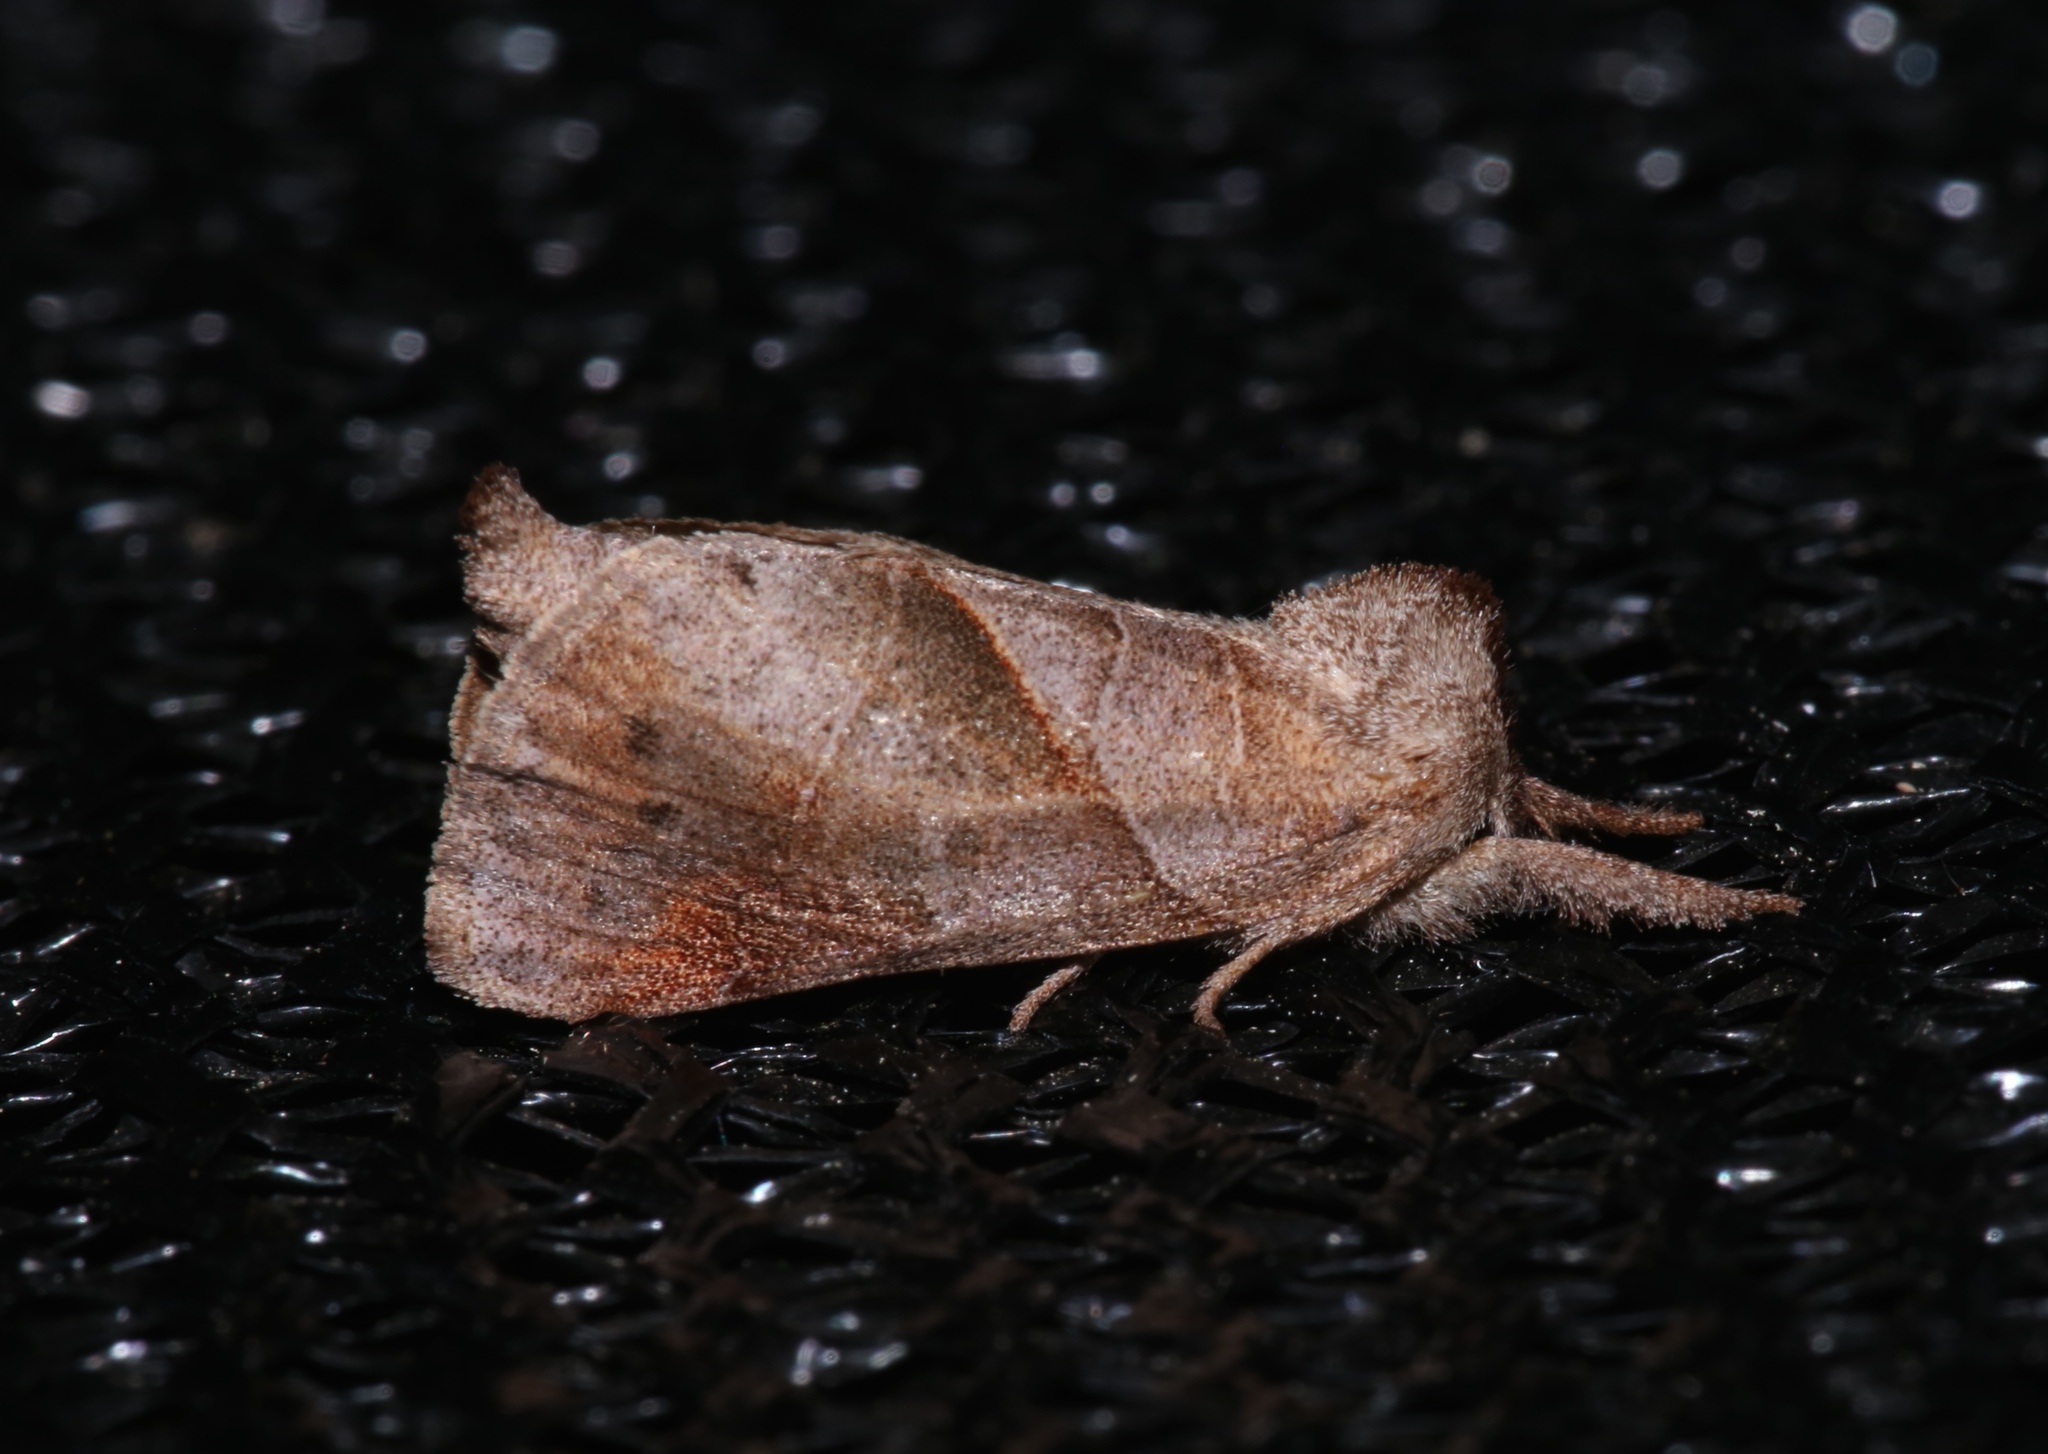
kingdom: Animalia
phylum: Arthropoda
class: Insecta
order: Lepidoptera
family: Notodontidae
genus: Clostera
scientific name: Clostera inclusa
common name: Angle-lined prominent
